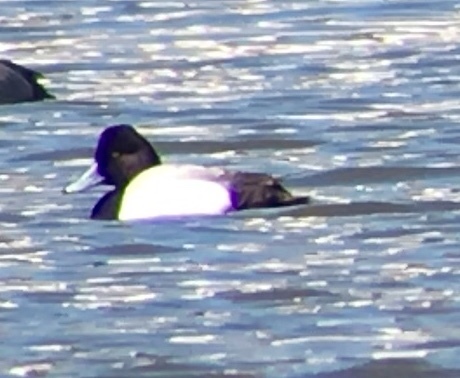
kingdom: Animalia
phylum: Chordata
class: Aves
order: Anseriformes
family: Anatidae
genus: Aythya
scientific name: Aythya affinis
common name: Lesser scaup
